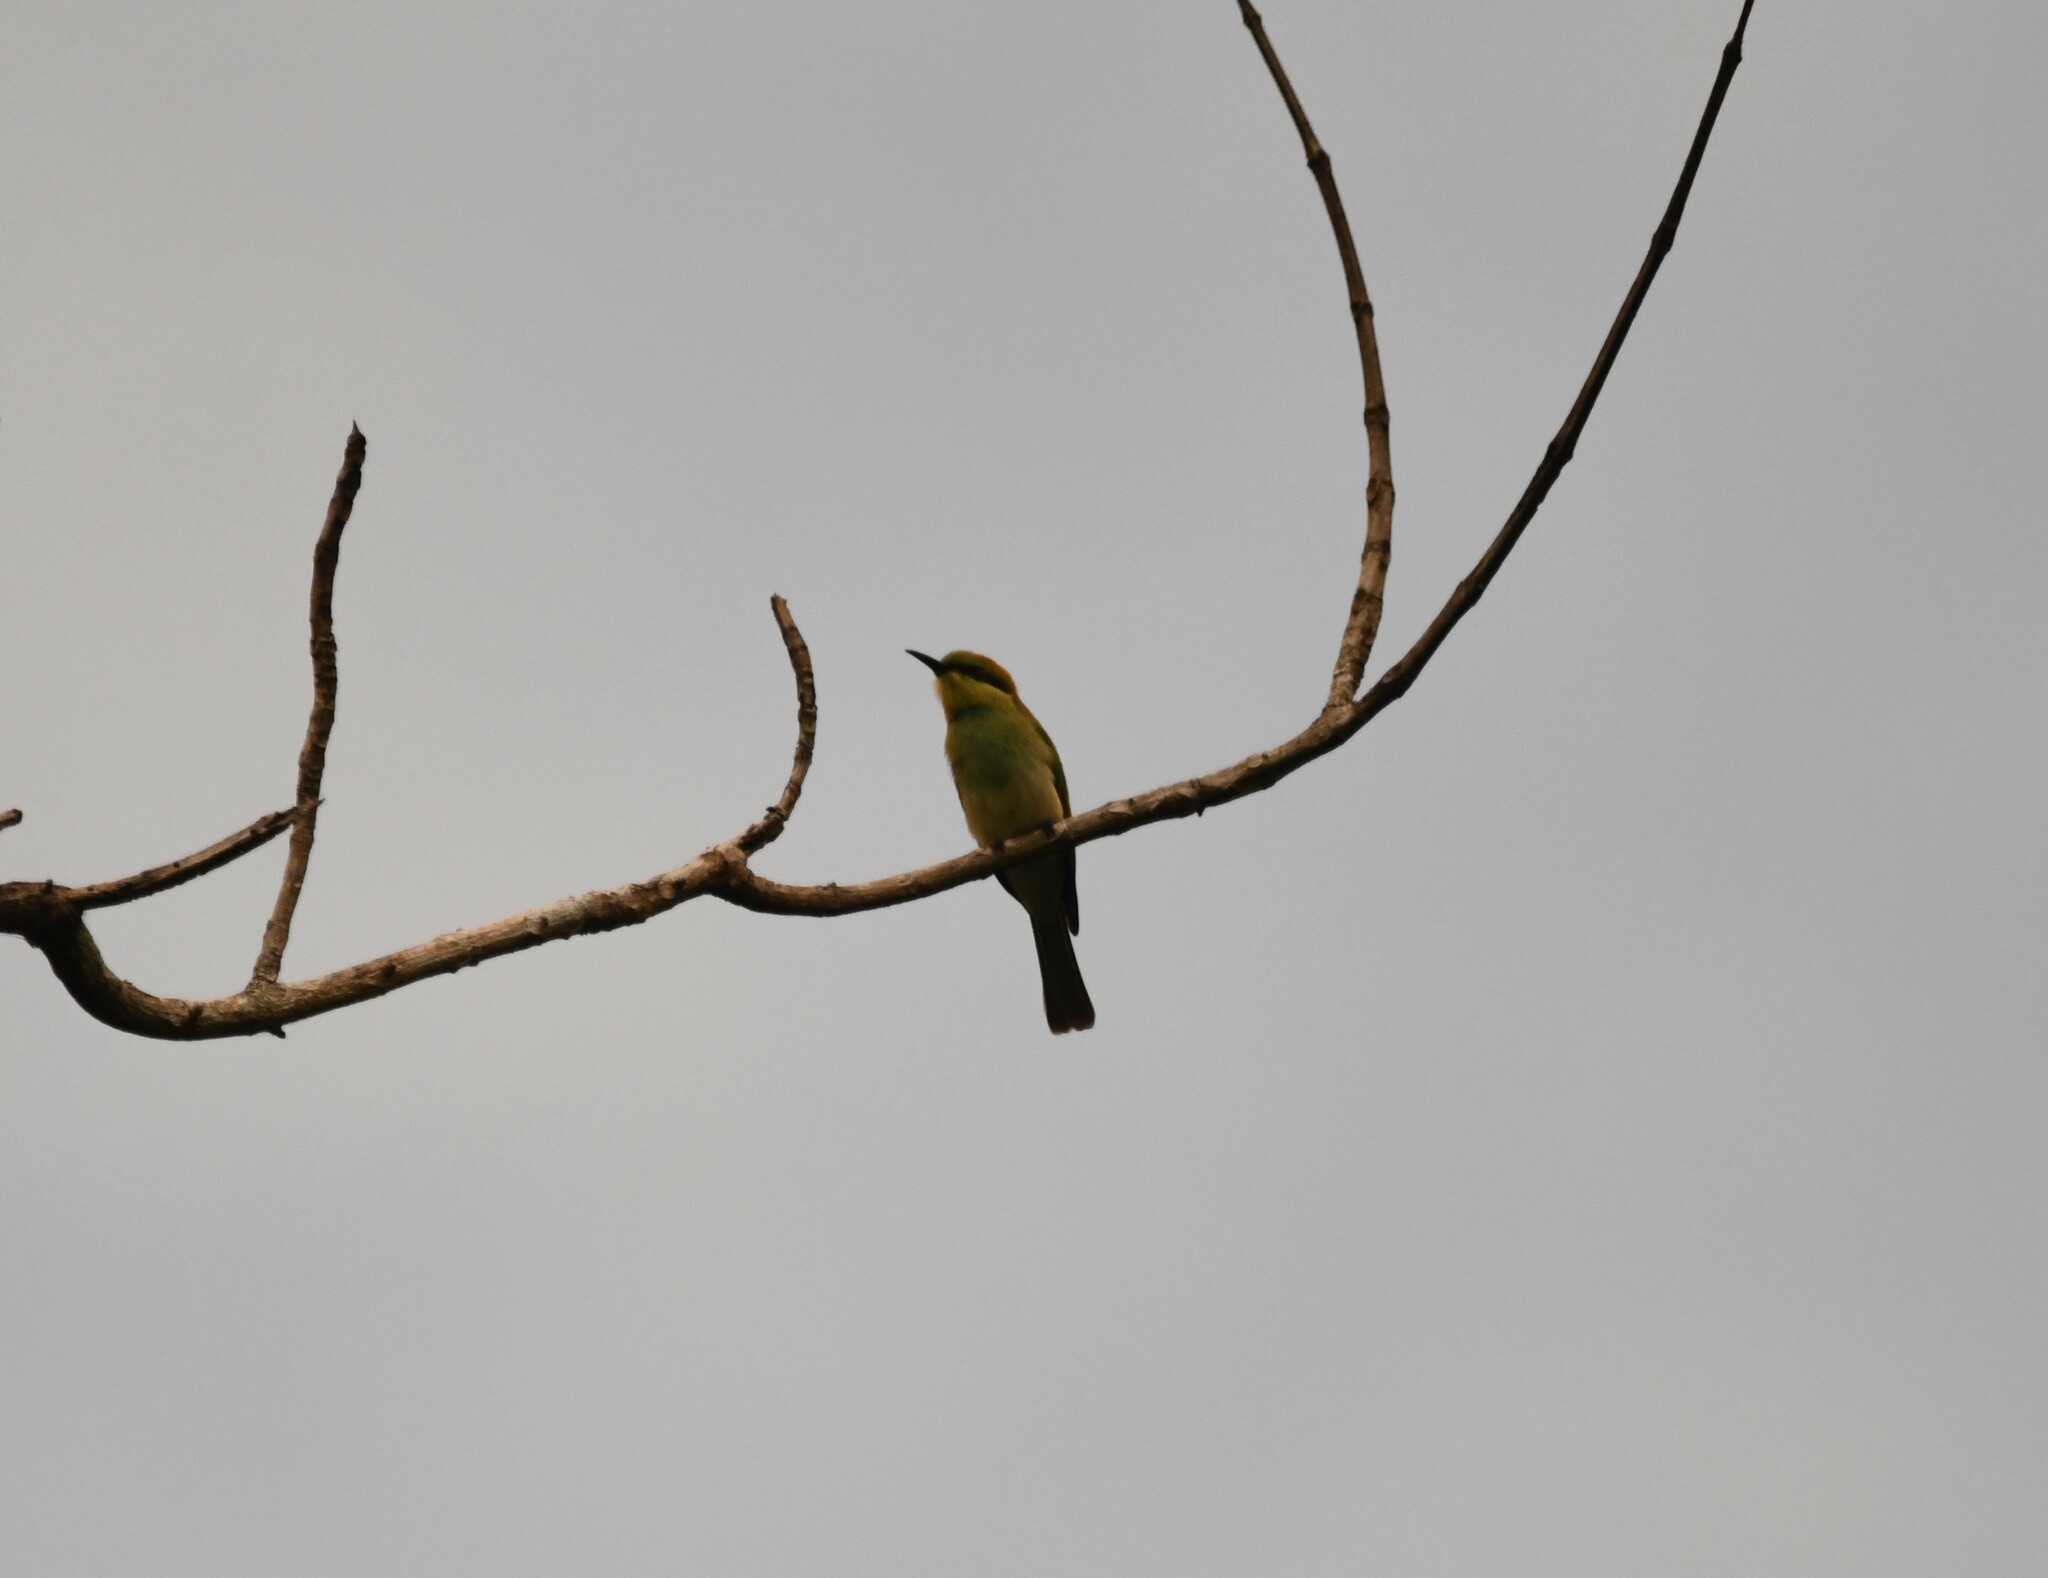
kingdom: Animalia
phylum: Chordata
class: Aves
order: Coraciiformes
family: Meropidae
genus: Merops
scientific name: Merops orientalis
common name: Green bee-eater
